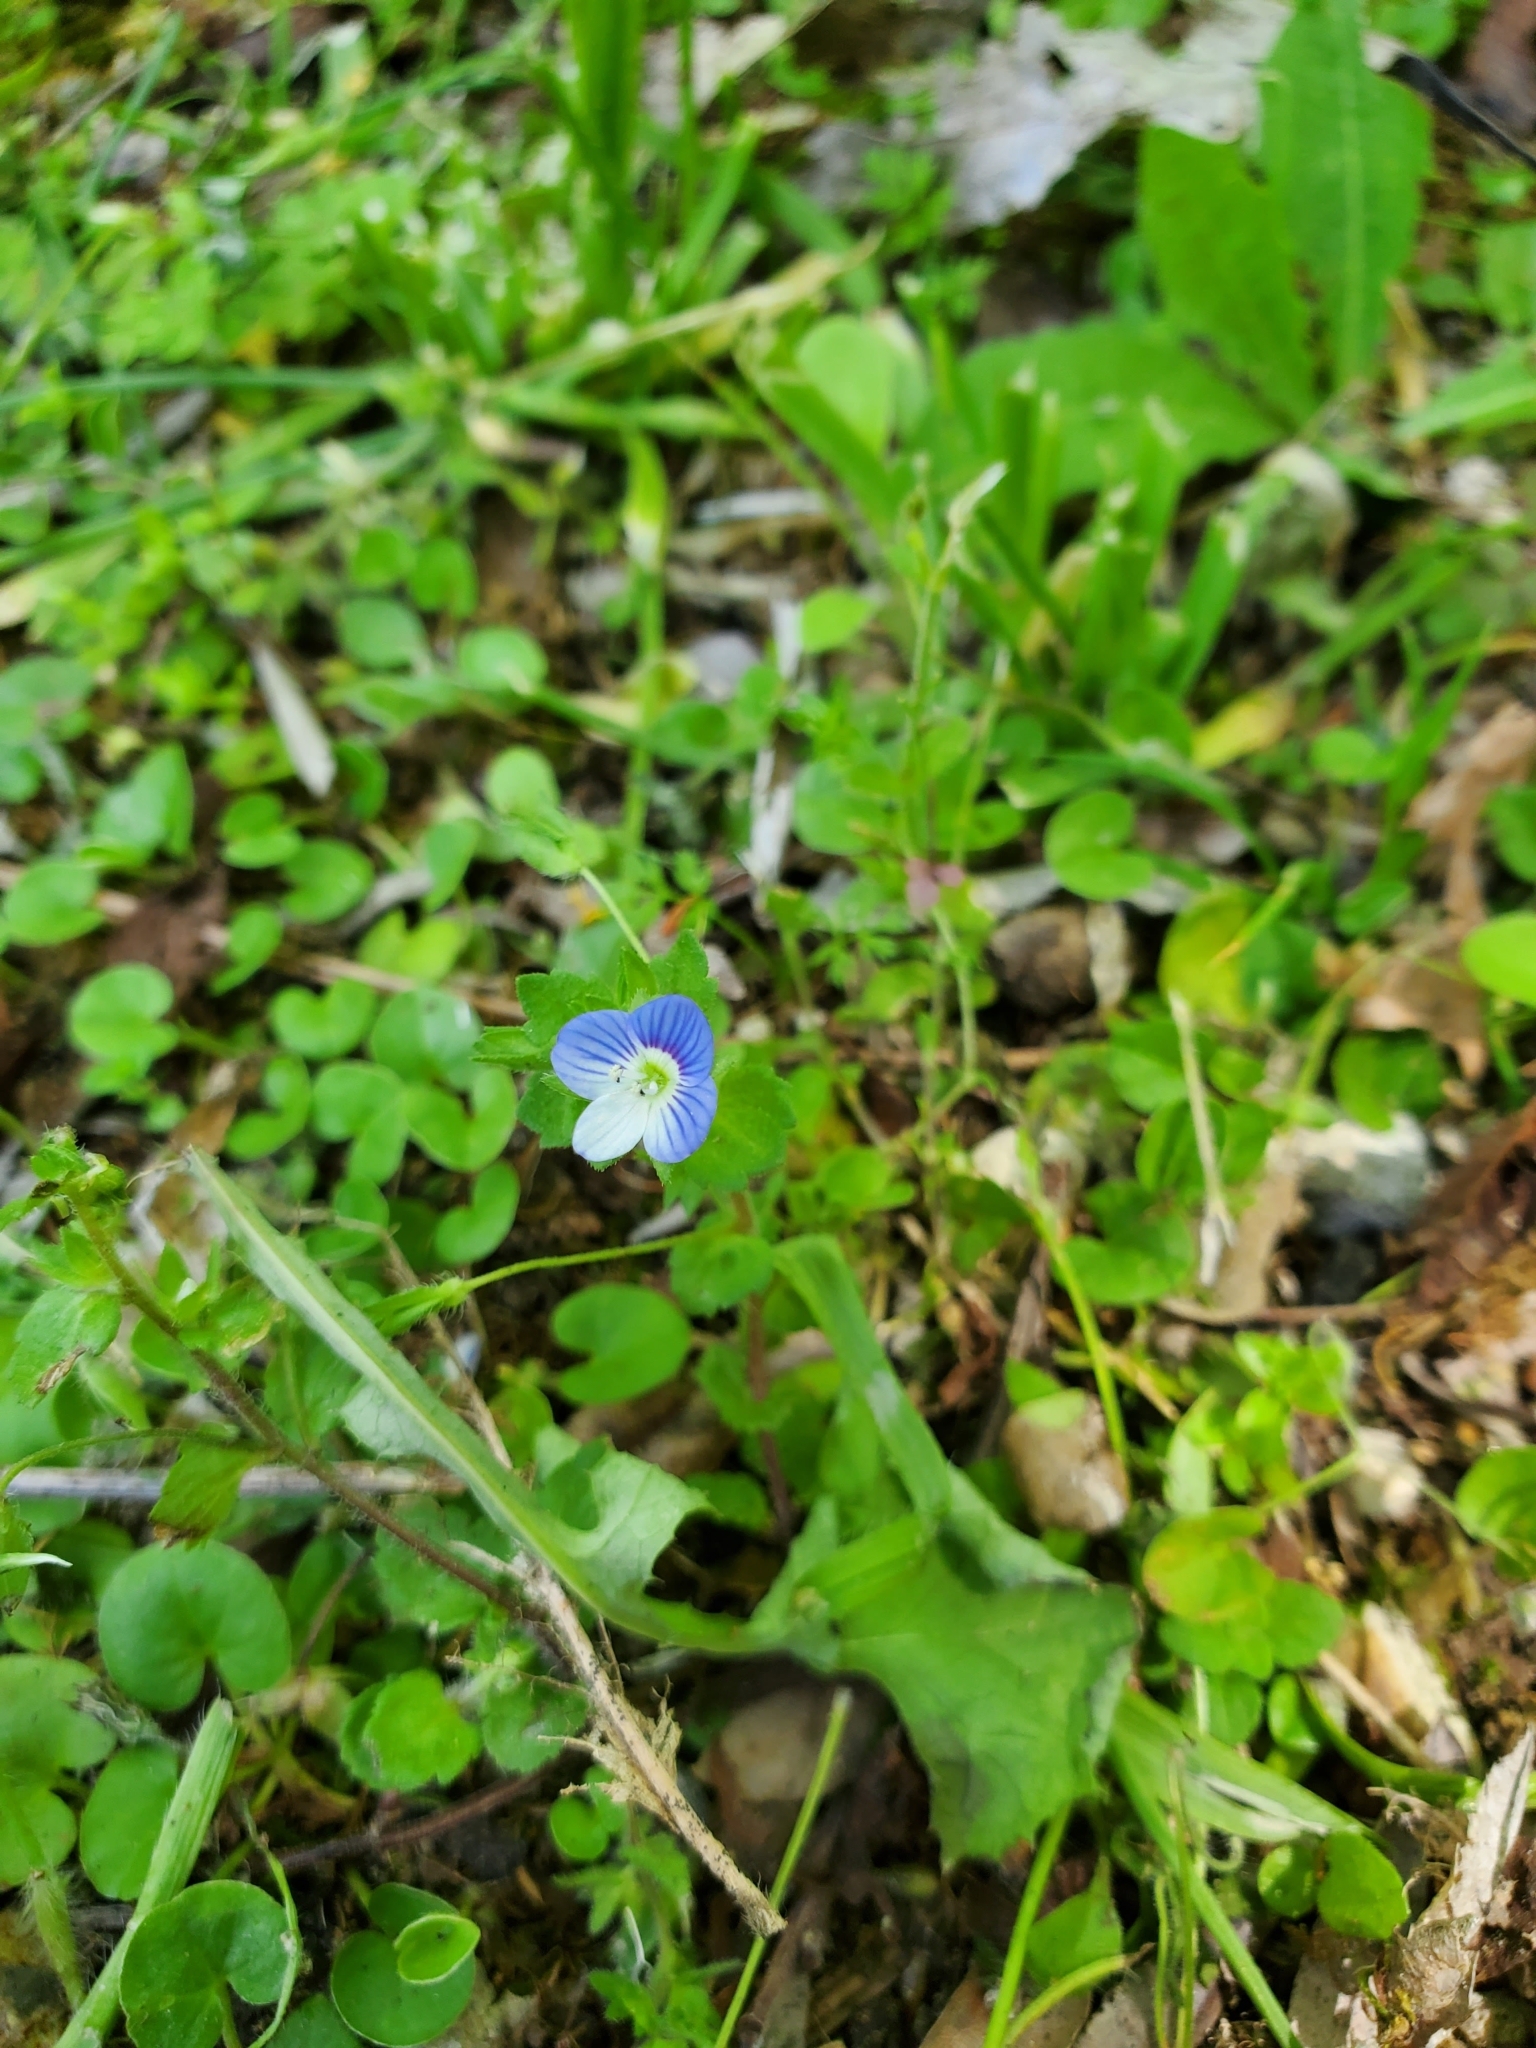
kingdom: Plantae
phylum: Tracheophyta
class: Magnoliopsida
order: Lamiales
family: Plantaginaceae
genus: Veronica
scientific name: Veronica persica
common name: Common field-speedwell
